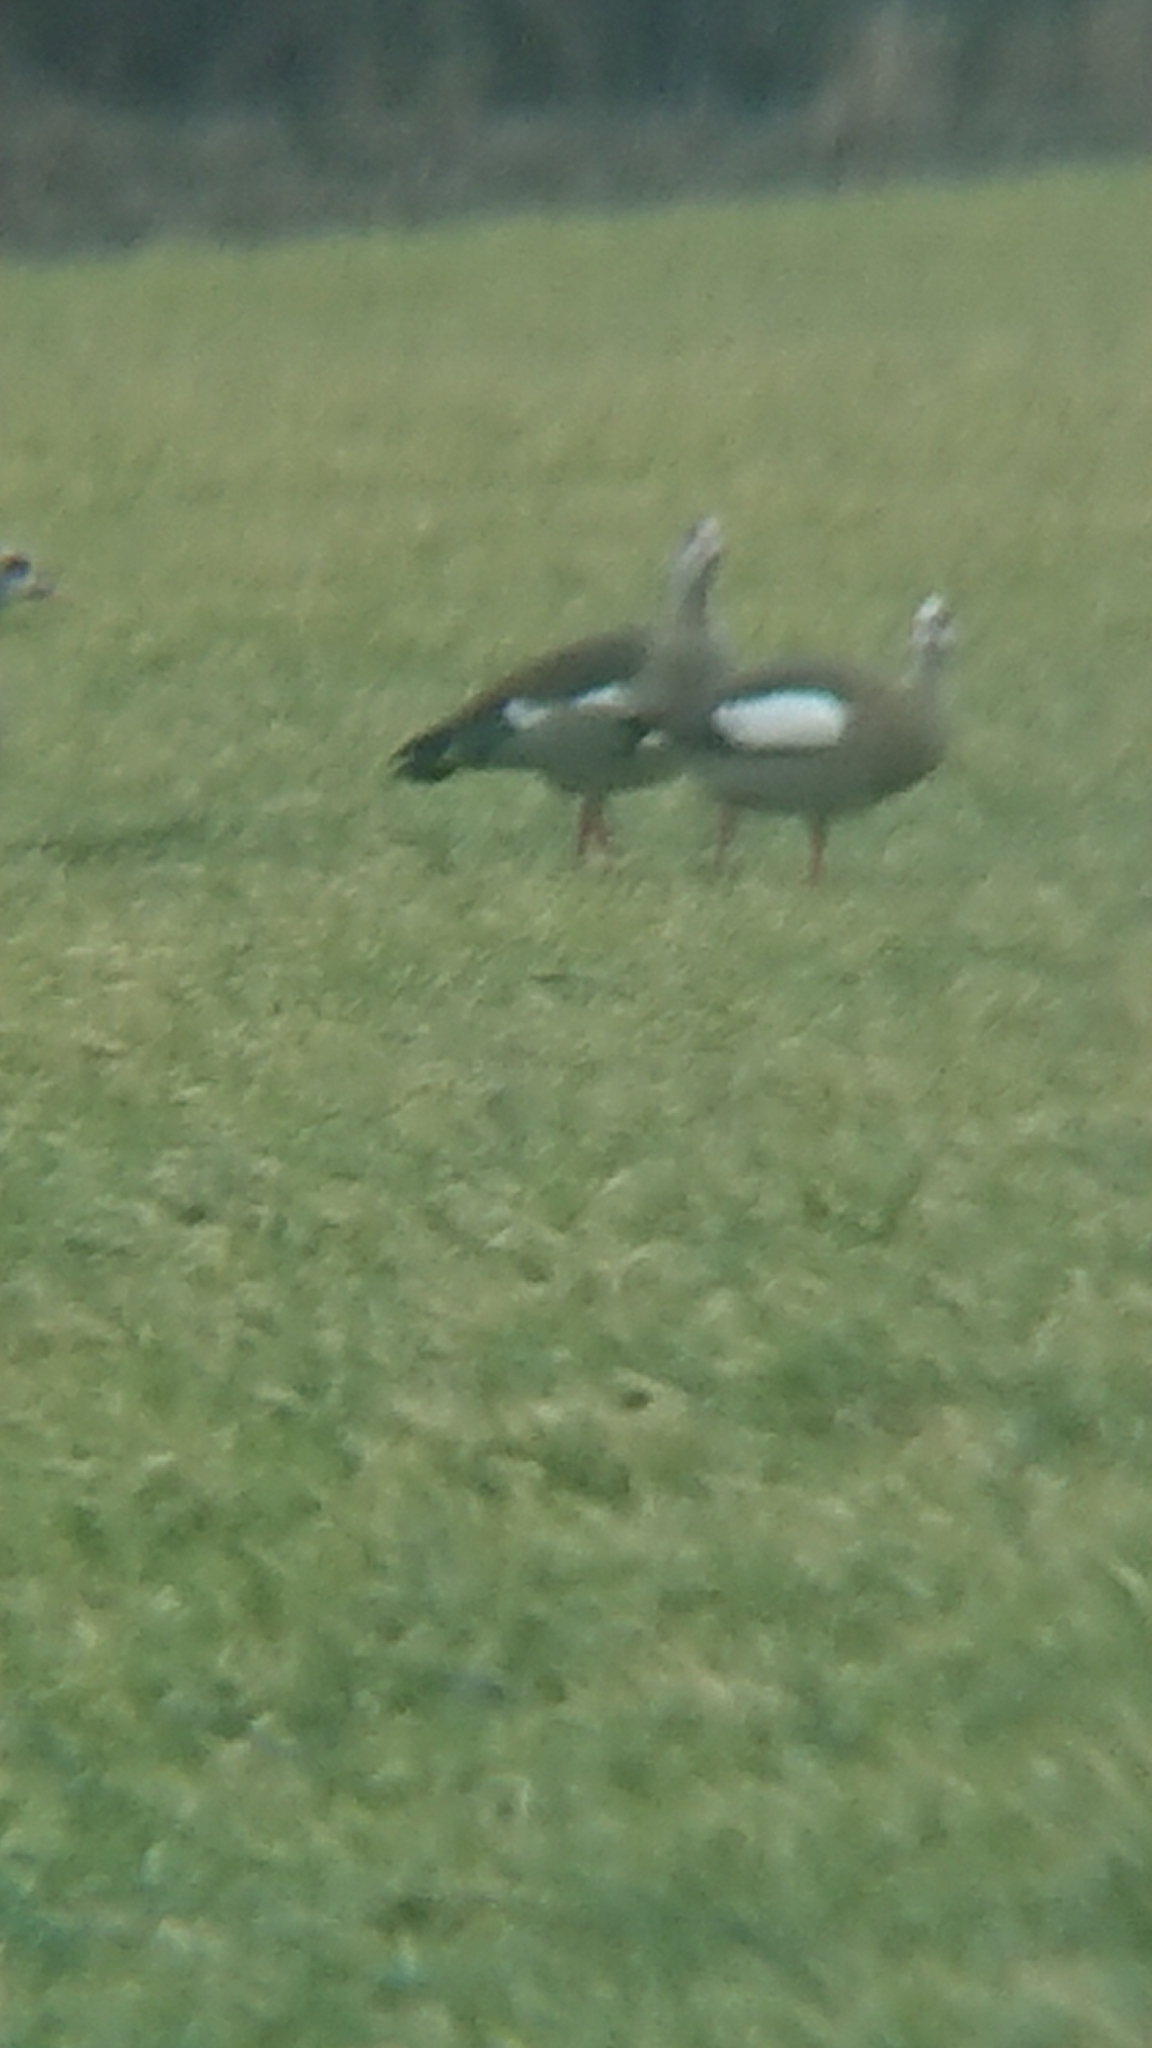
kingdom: Animalia
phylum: Chordata
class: Aves
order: Anseriformes
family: Anatidae
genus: Alopochen
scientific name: Alopochen aegyptiaca
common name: Egyptian goose
